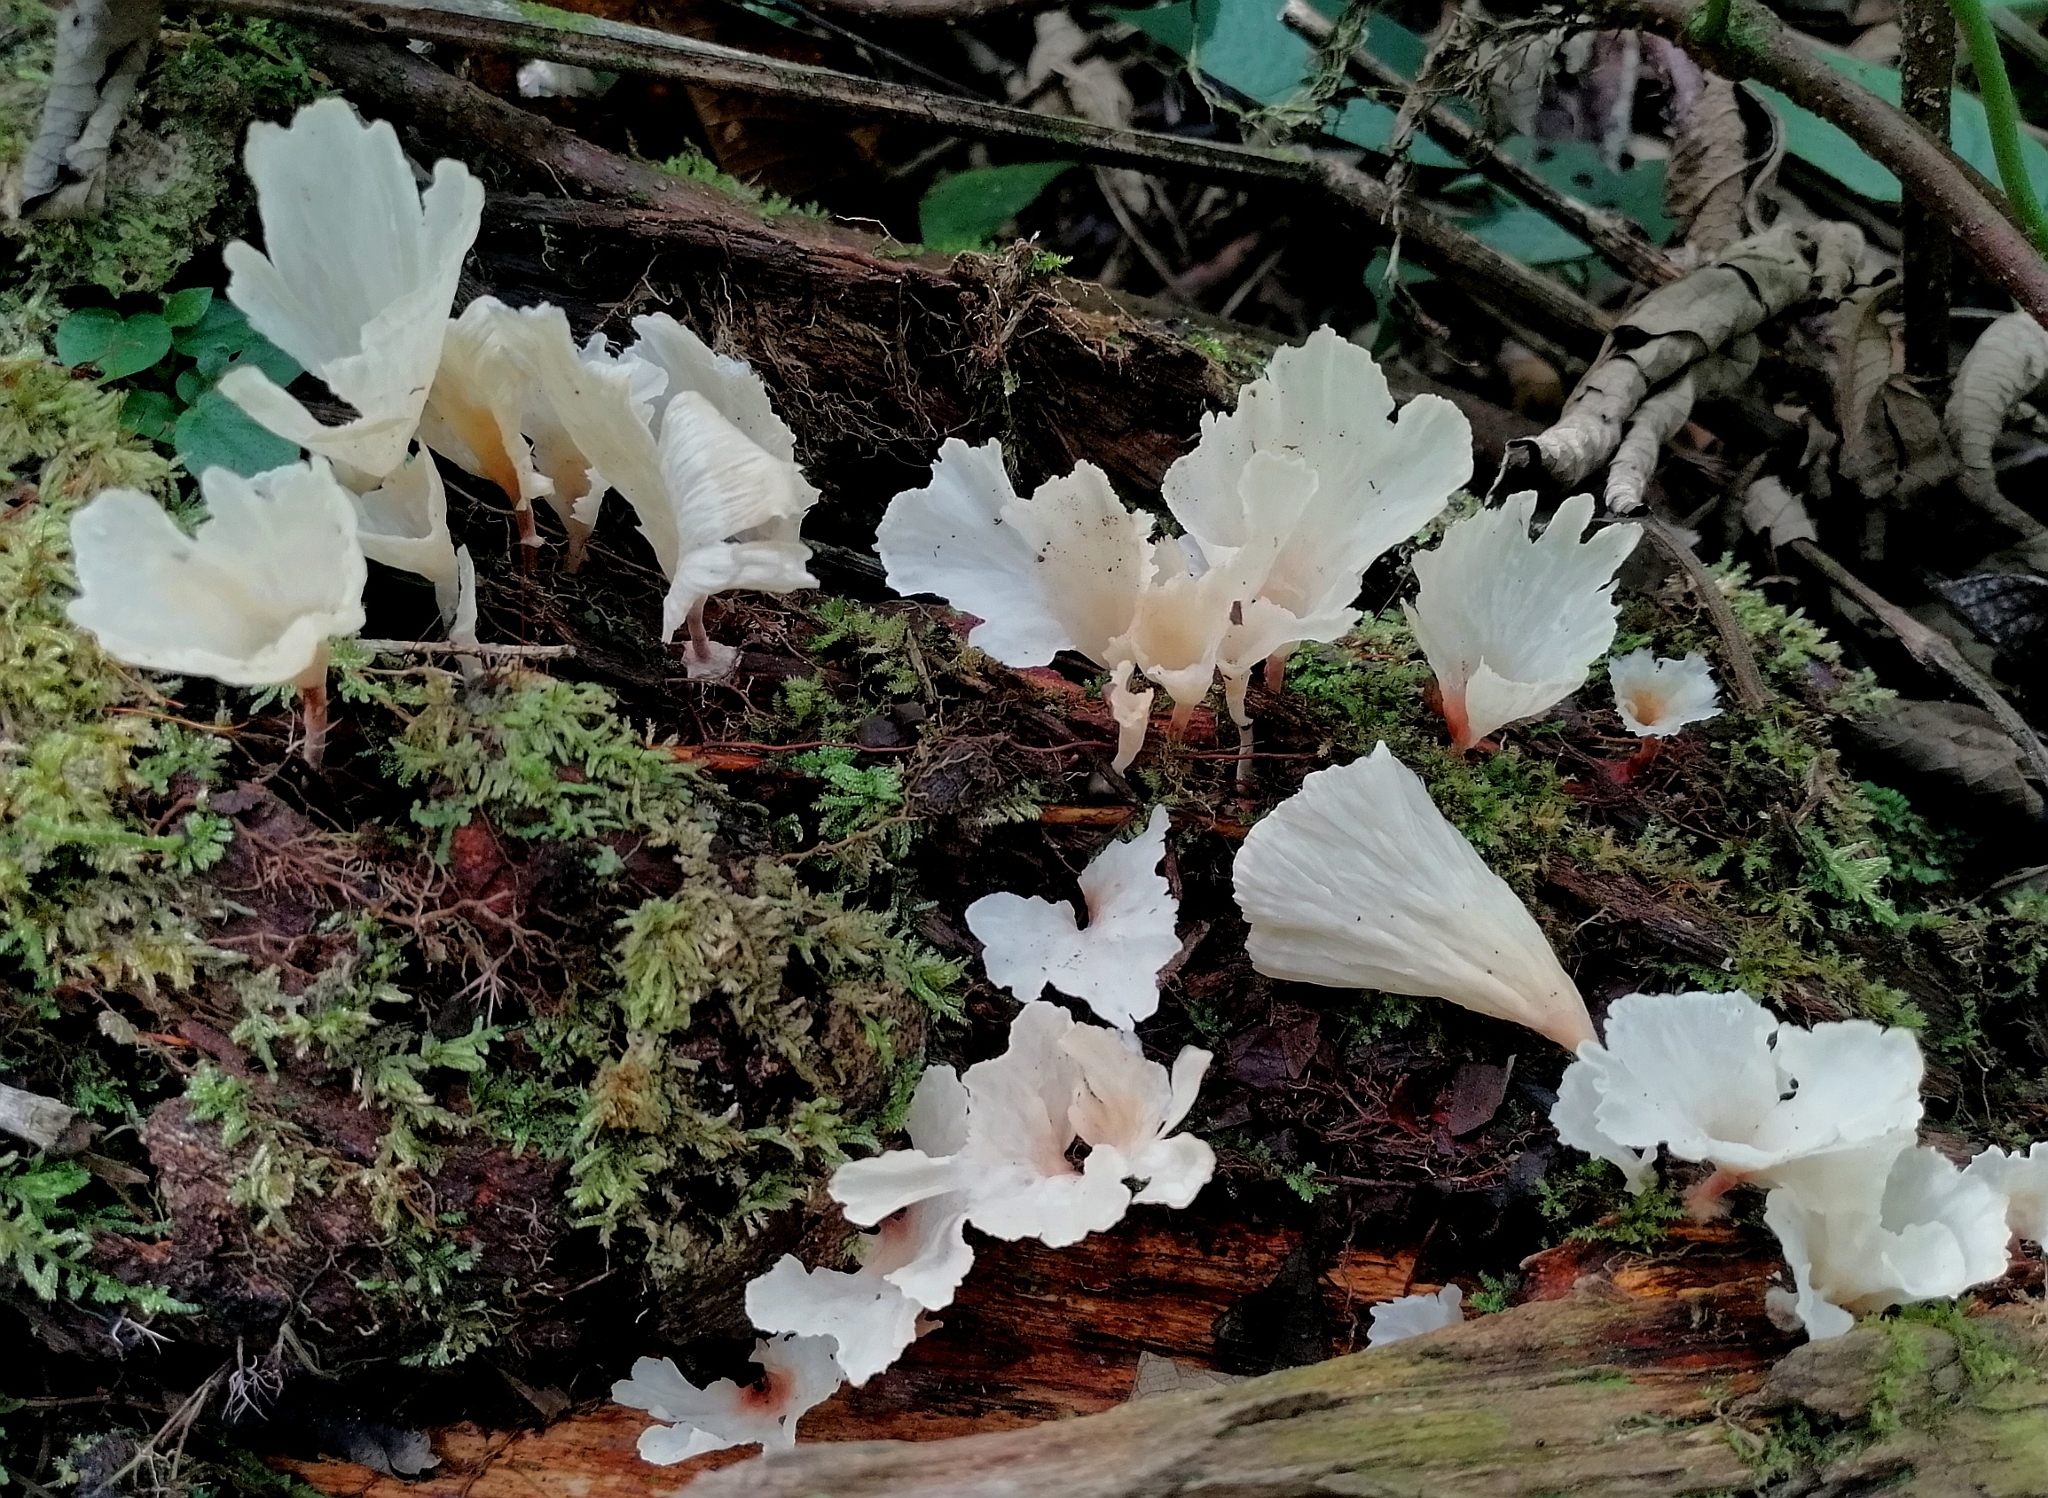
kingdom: Fungi
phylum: Basidiomycota
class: Agaricomycetes
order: Hymenochaetales
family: Rickenellaceae
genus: Cotylidia
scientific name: Cotylidia diaphana
